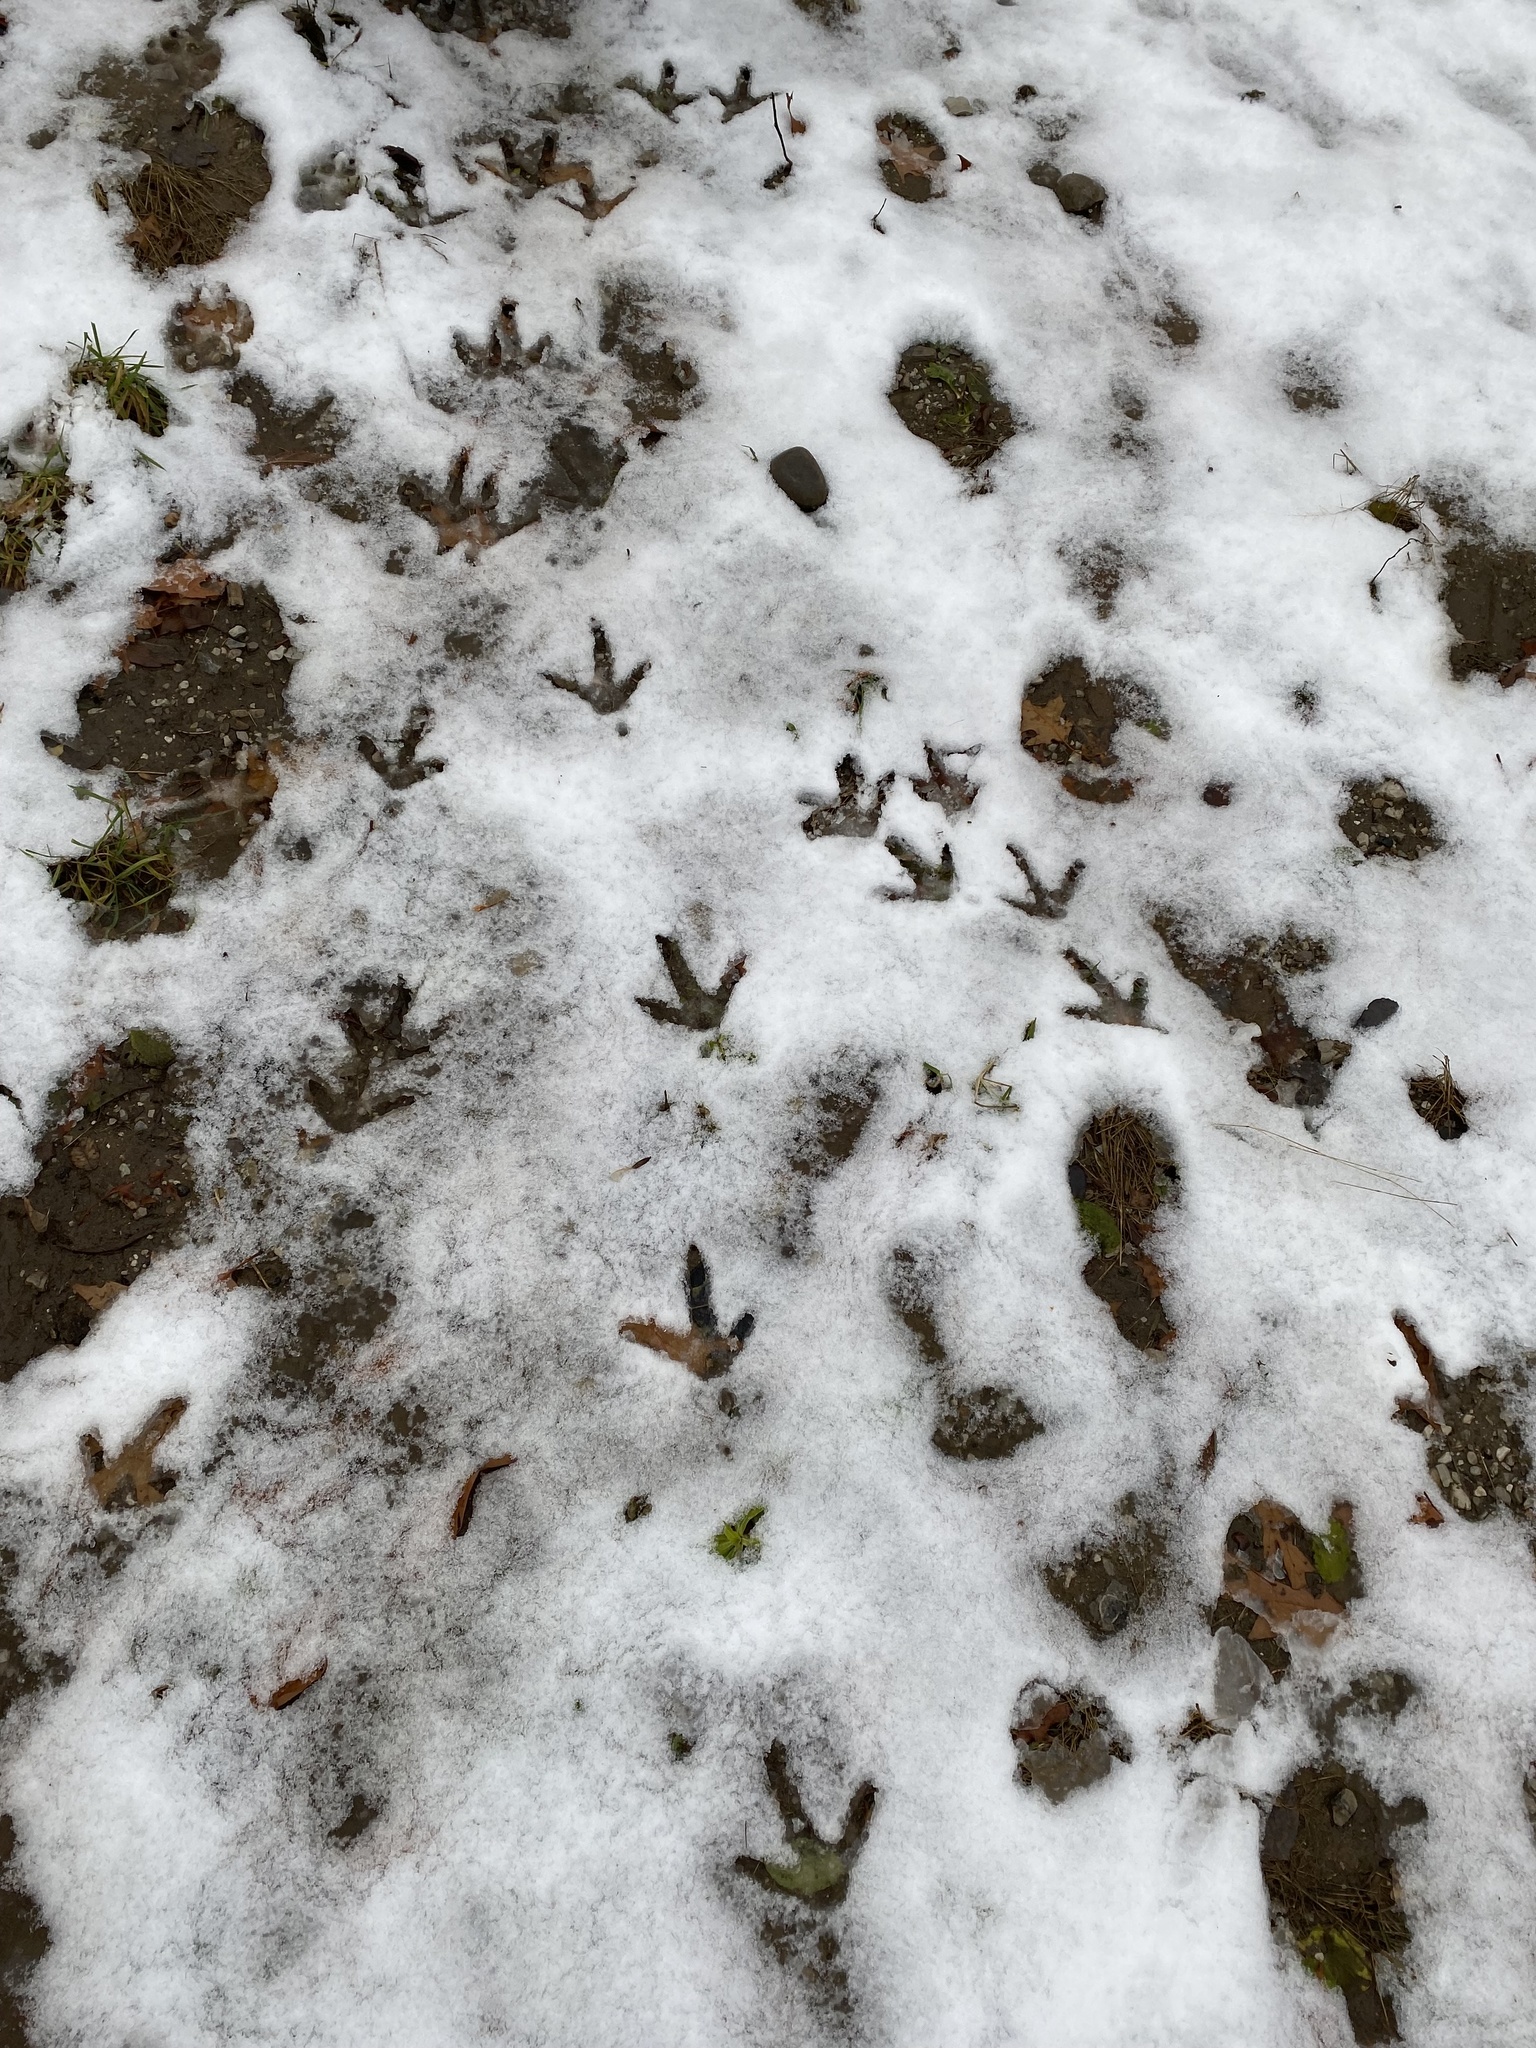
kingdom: Animalia
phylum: Chordata
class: Aves
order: Galliformes
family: Phasianidae
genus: Meleagris
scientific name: Meleagris gallopavo
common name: Wild turkey
